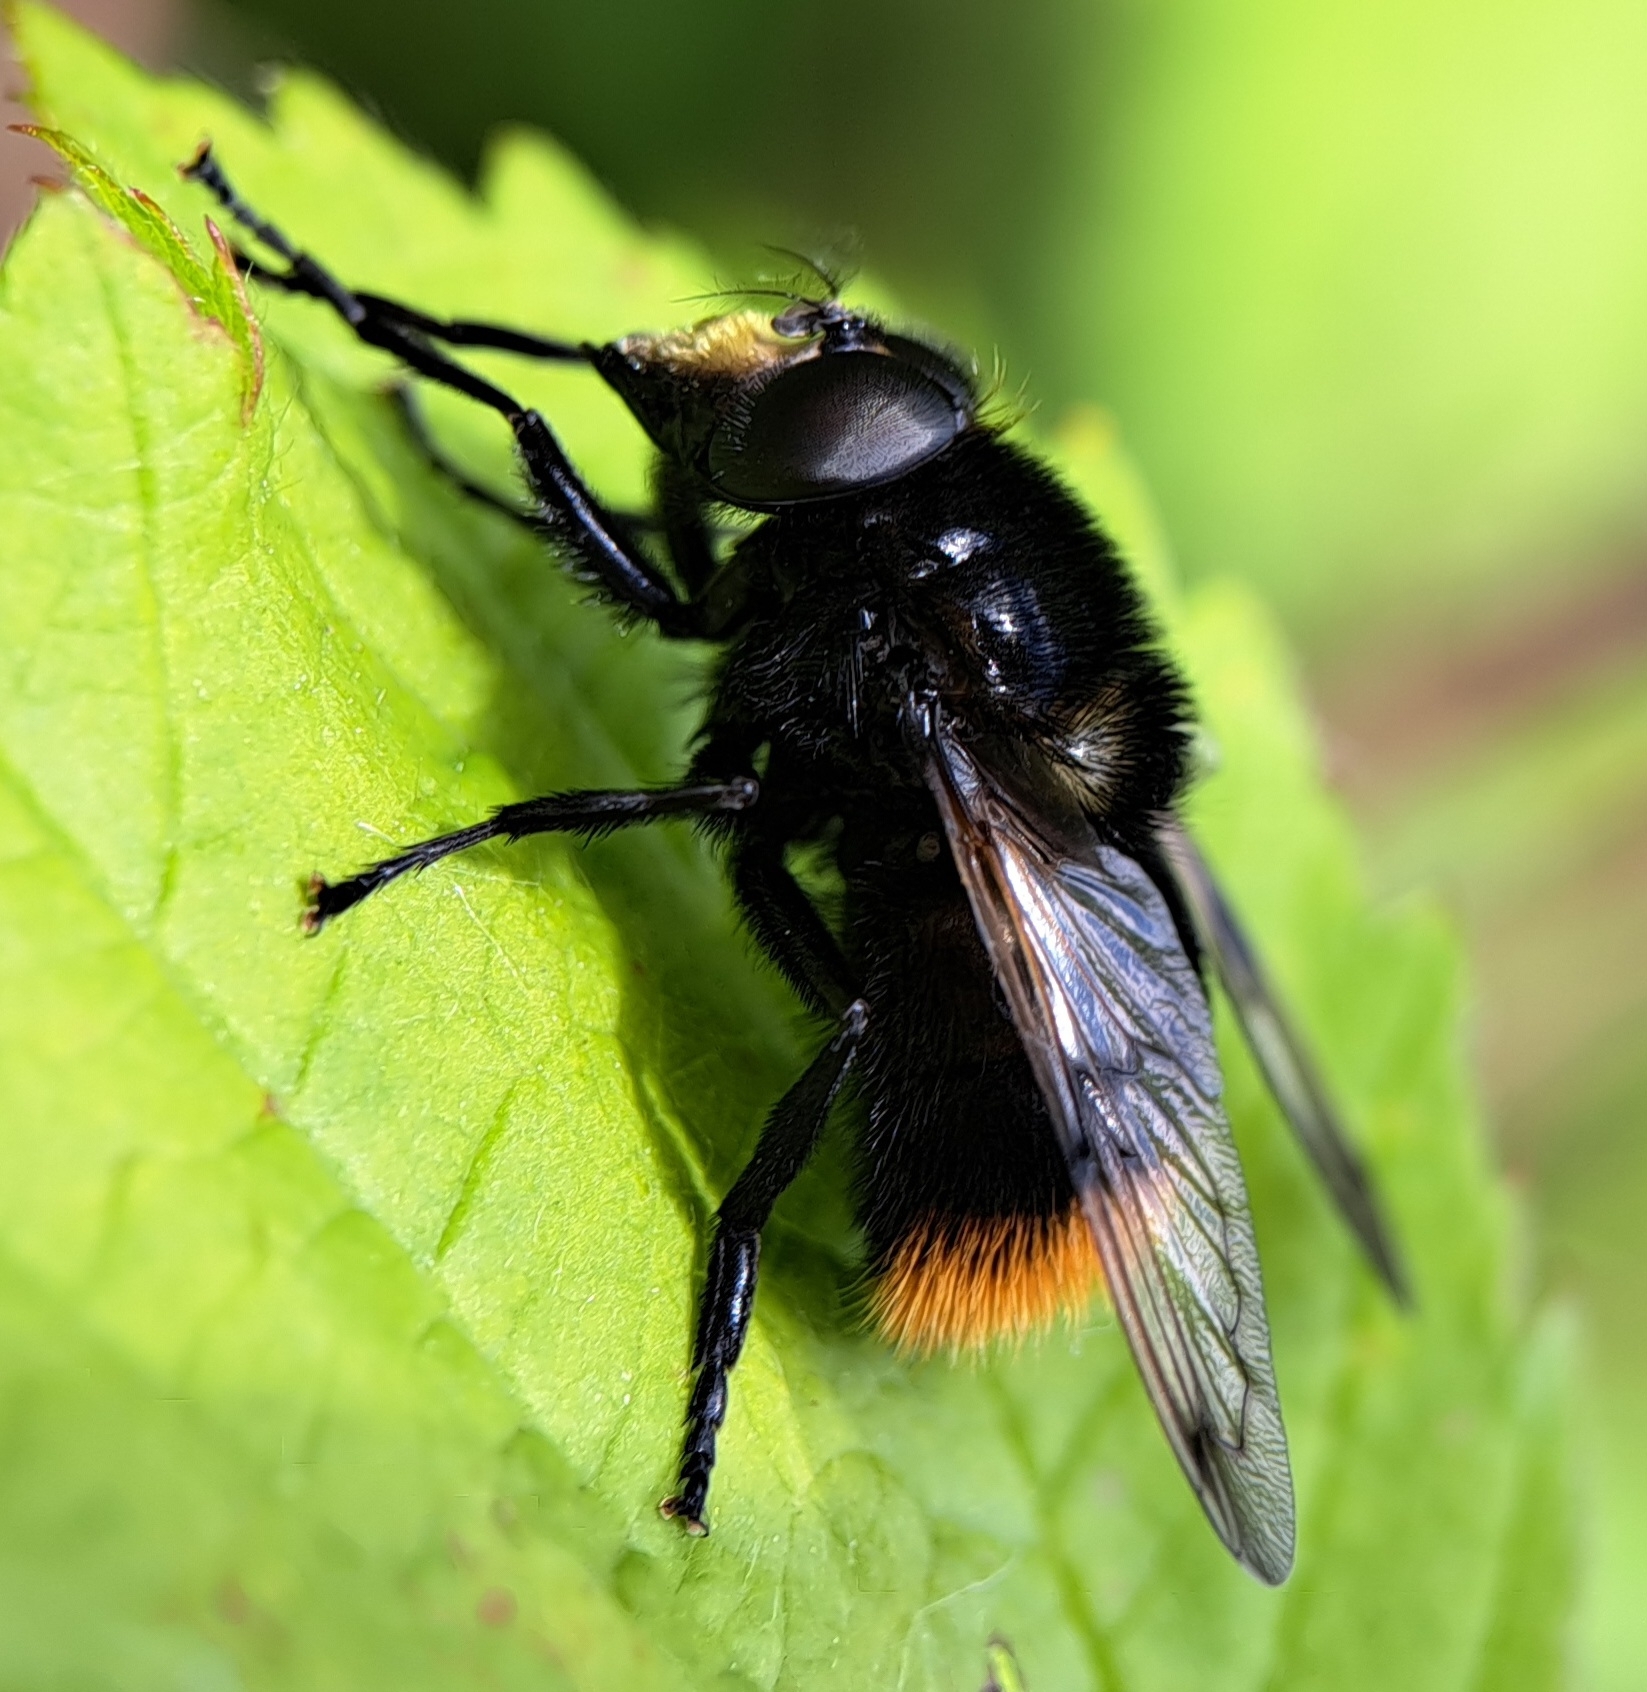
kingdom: Animalia
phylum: Arthropoda
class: Insecta
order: Diptera
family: Syrphidae
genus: Volucella
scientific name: Volucella bombylans
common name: Bumble bee hover fly
